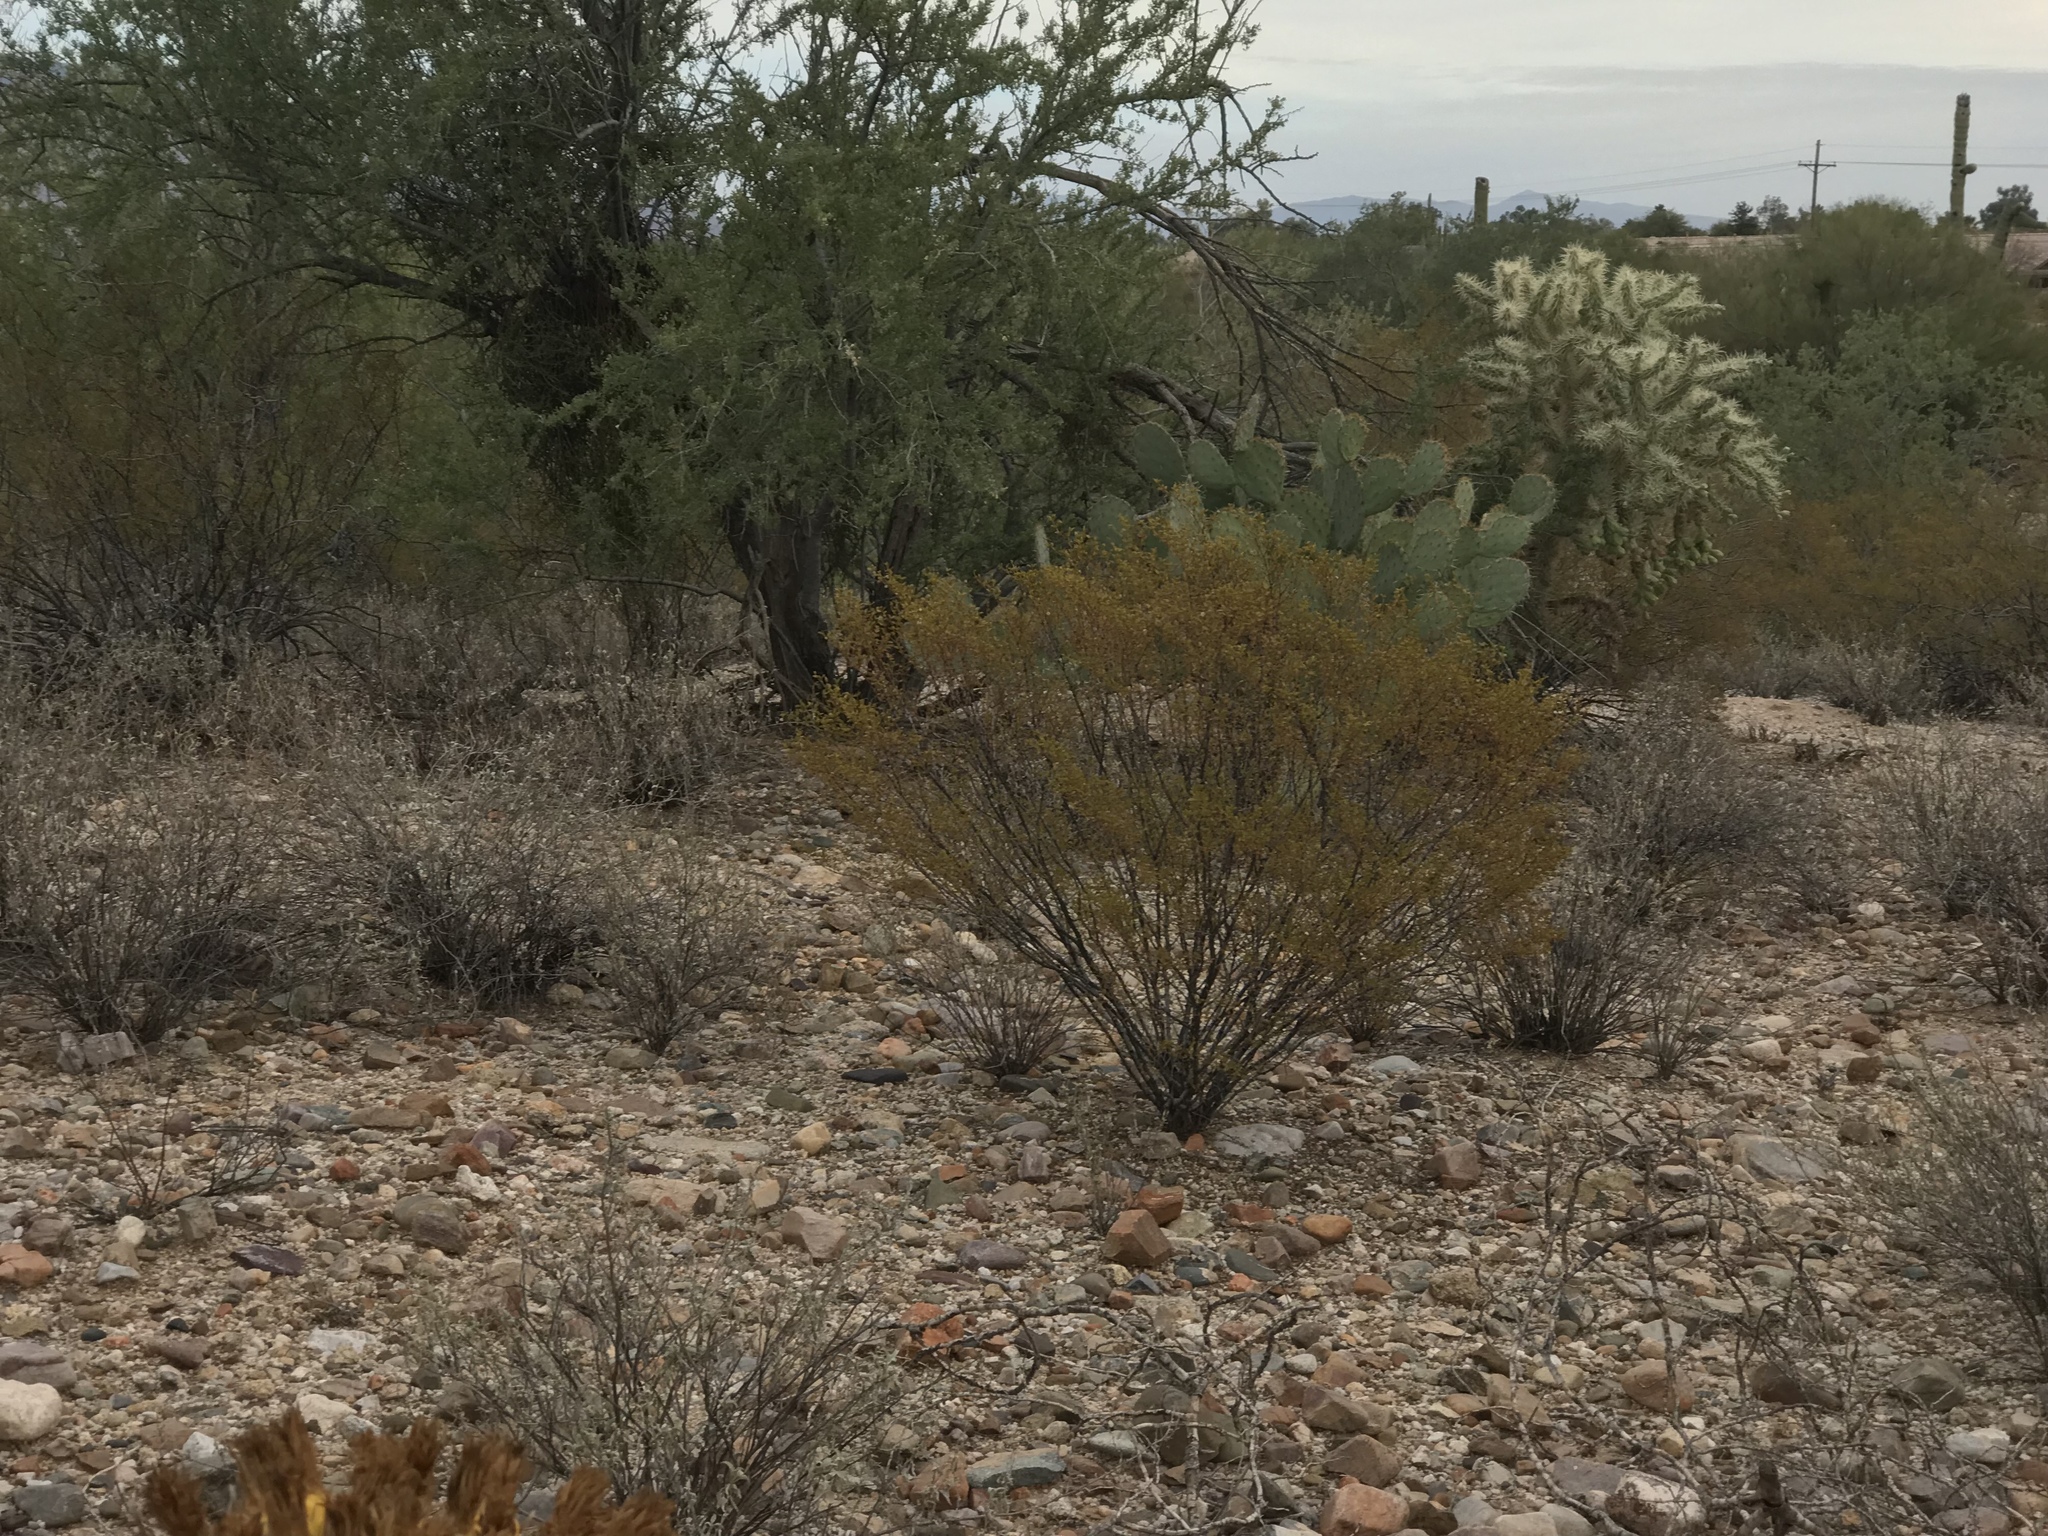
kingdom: Plantae
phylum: Tracheophyta
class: Magnoliopsida
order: Zygophyllales
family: Zygophyllaceae
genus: Larrea
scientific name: Larrea tridentata
